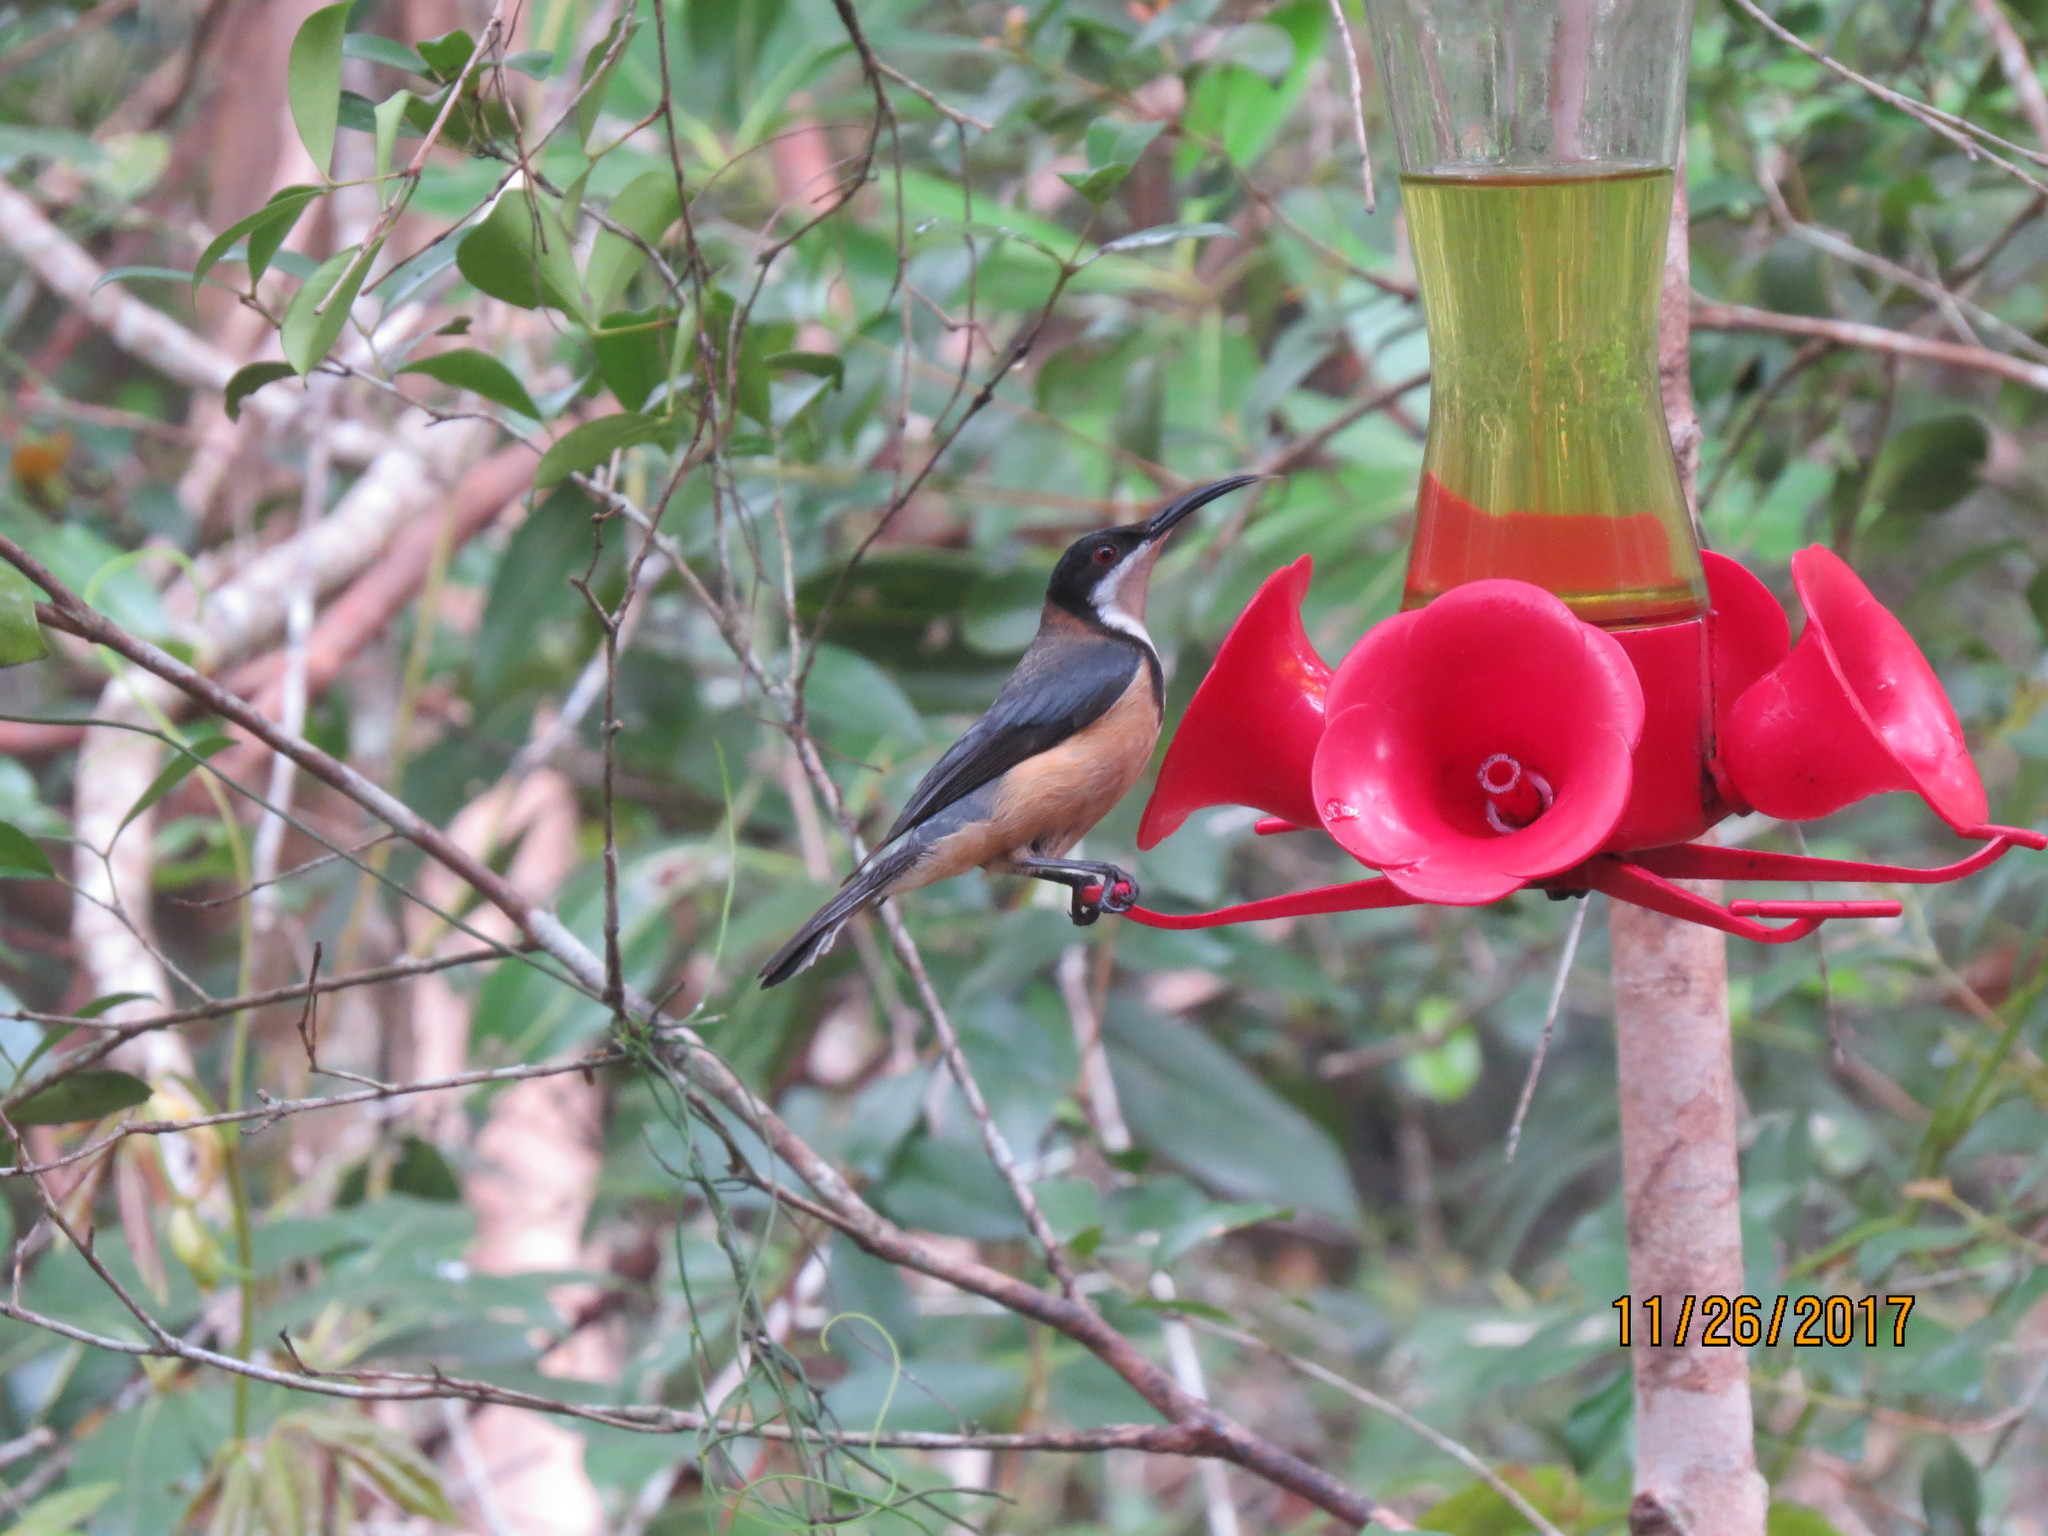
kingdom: Animalia
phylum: Chordata
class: Aves
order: Passeriformes
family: Meliphagidae
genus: Acanthorhynchus
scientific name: Acanthorhynchus tenuirostris
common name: Eastern spinebill
